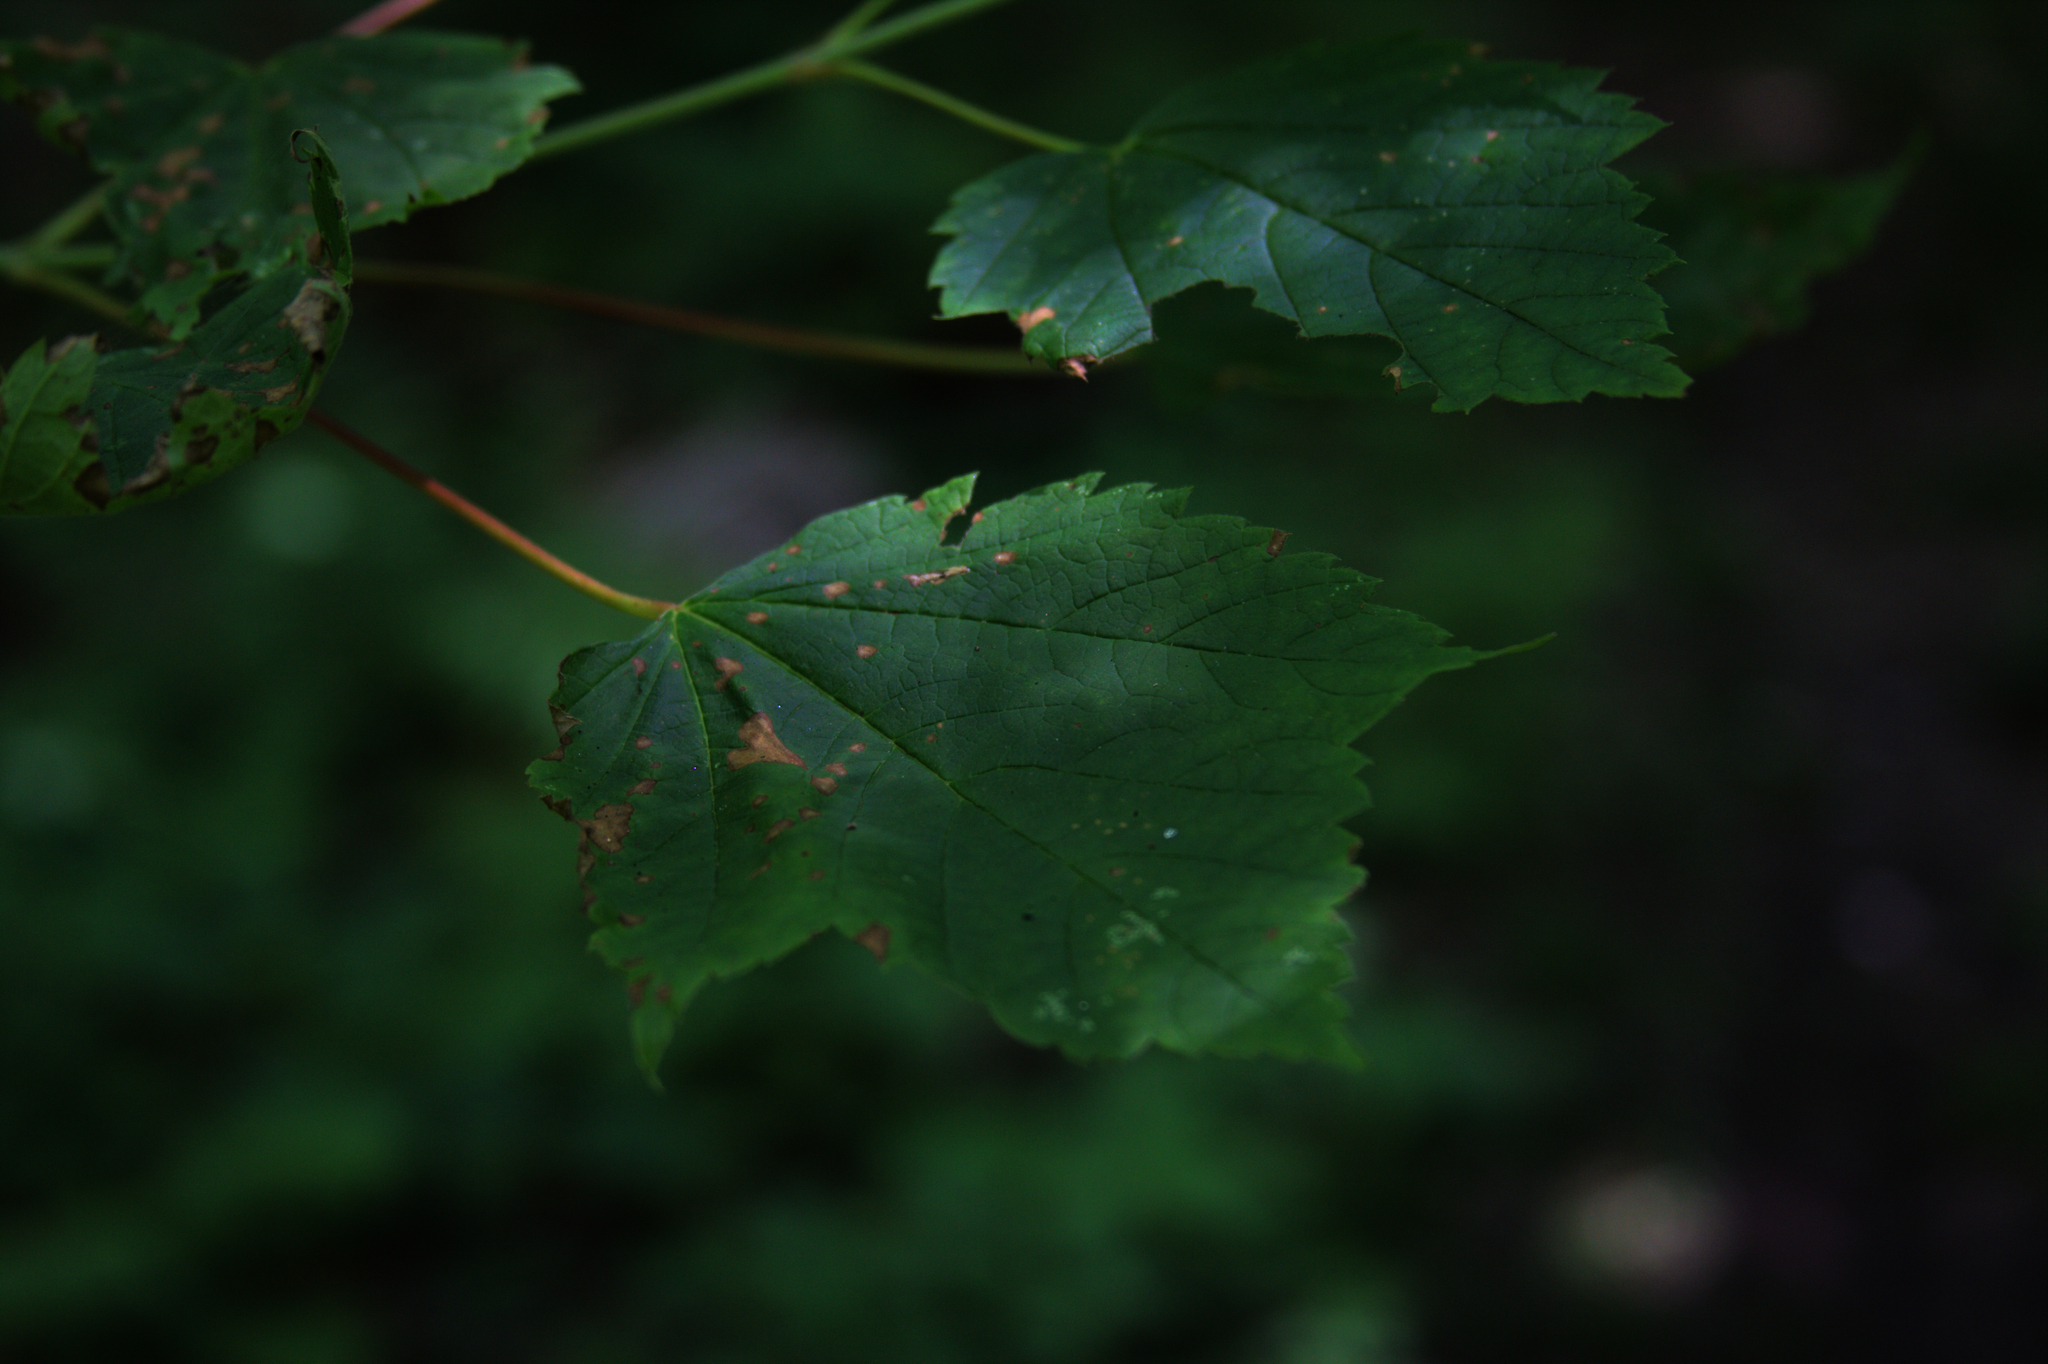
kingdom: Plantae
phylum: Tracheophyta
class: Magnoliopsida
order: Sapindales
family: Sapindaceae
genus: Acer
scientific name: Acer spicatum
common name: Mountain maple
